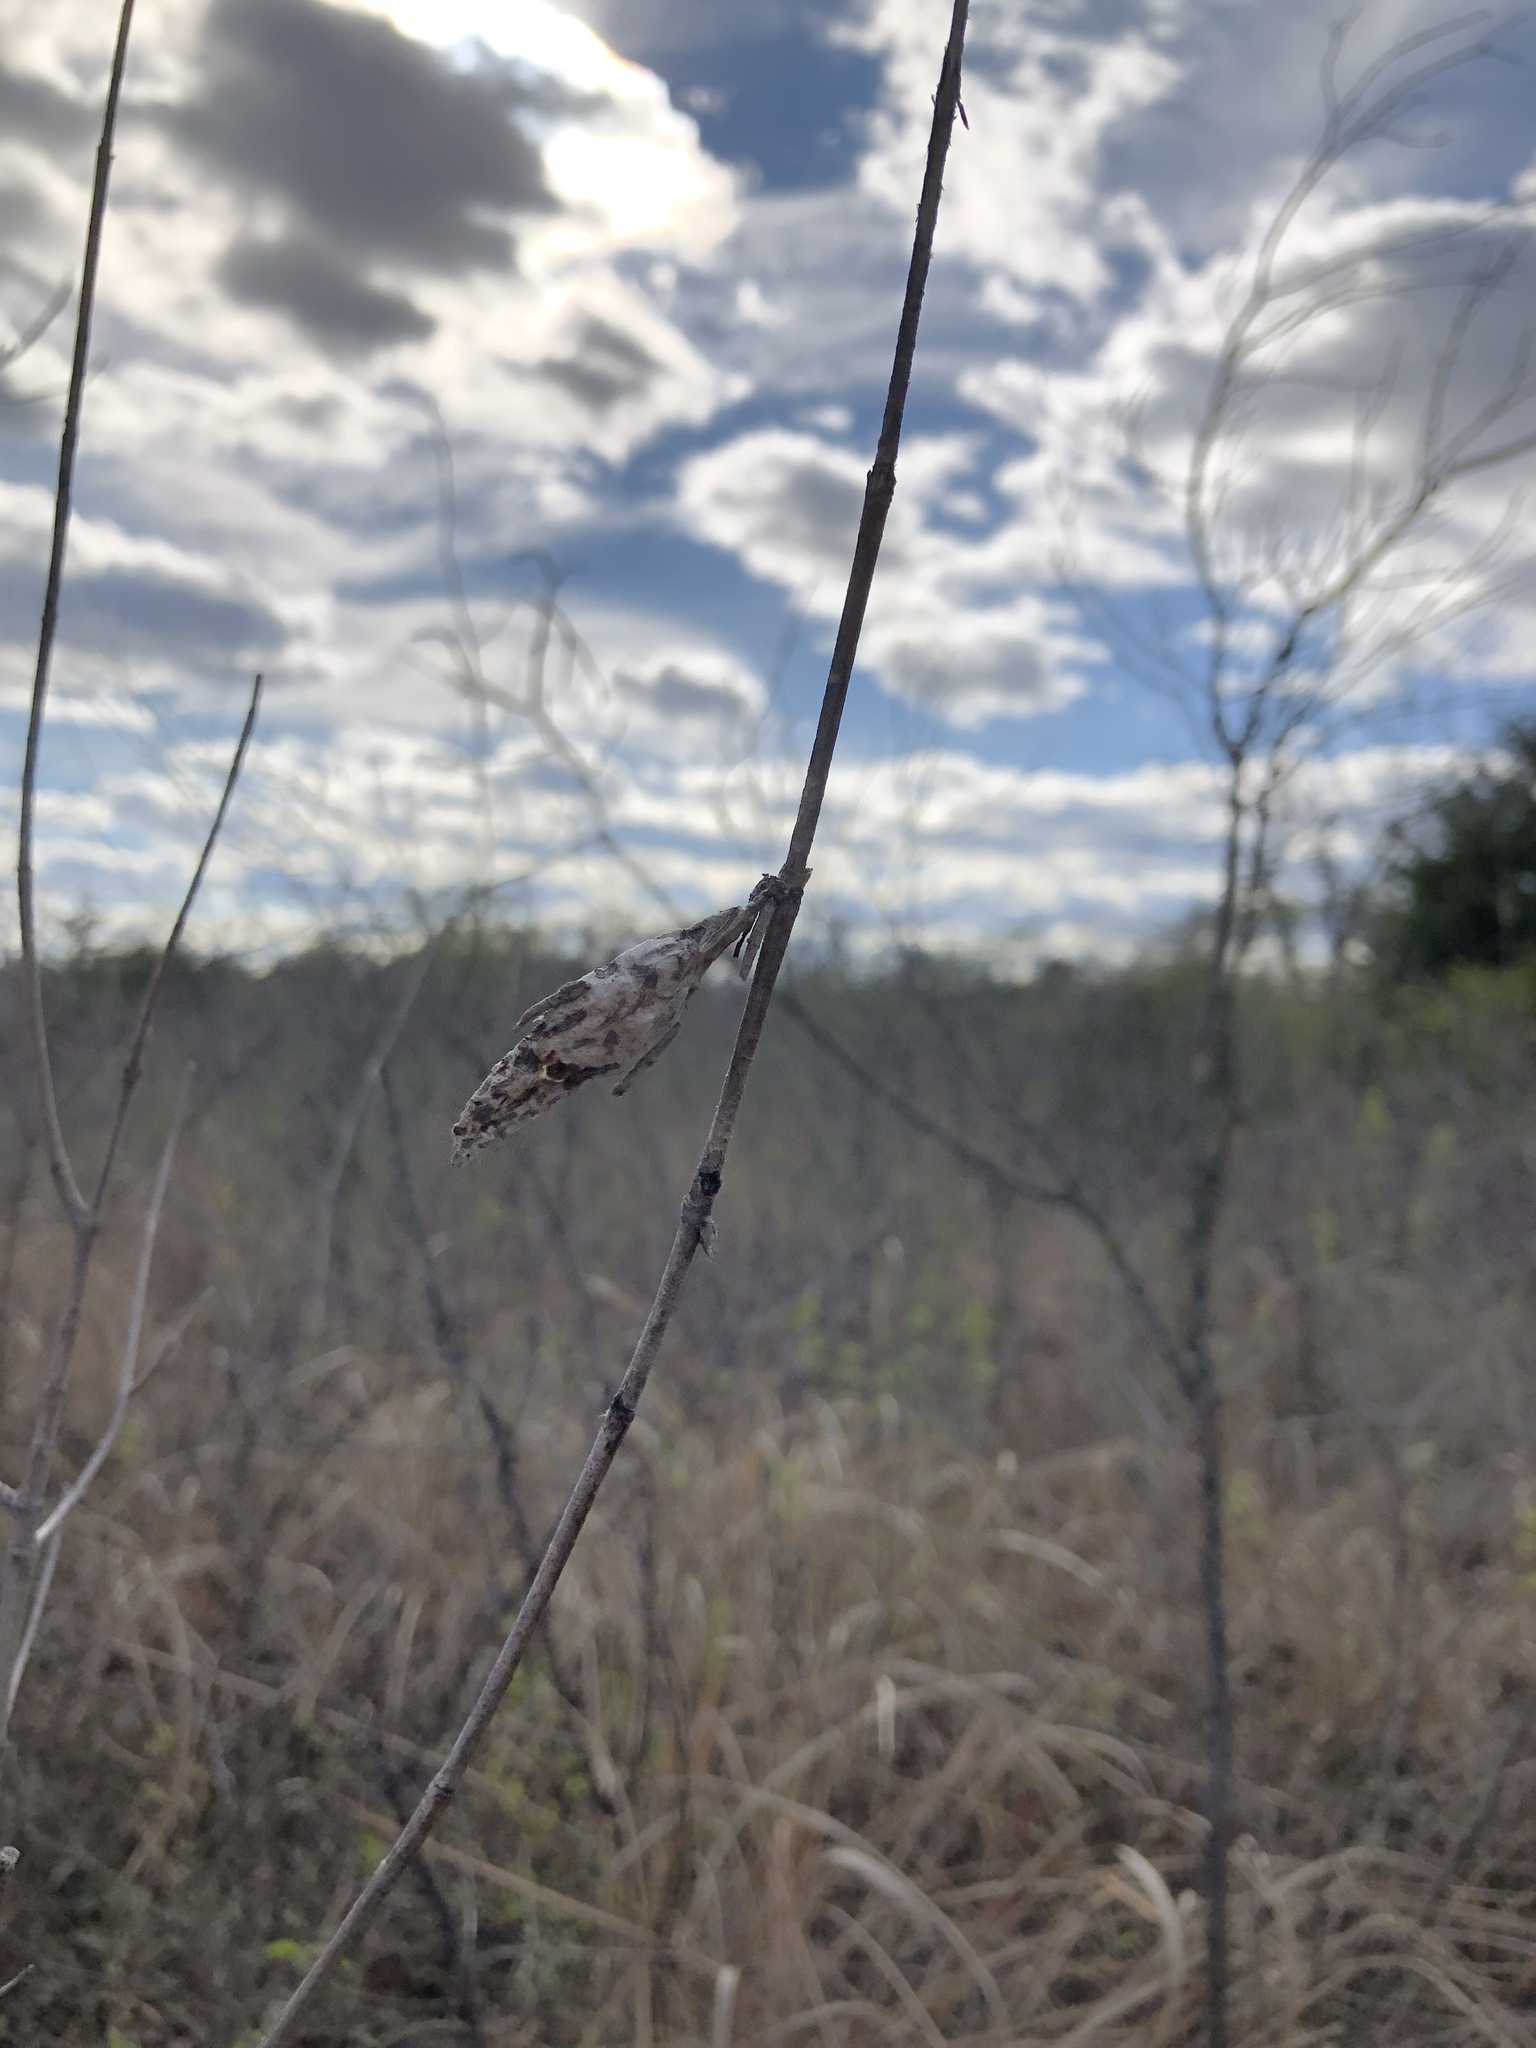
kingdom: Animalia
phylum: Arthropoda
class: Insecta
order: Lepidoptera
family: Psychidae
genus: Thyridopteryx
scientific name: Thyridopteryx ephemeraeformis
